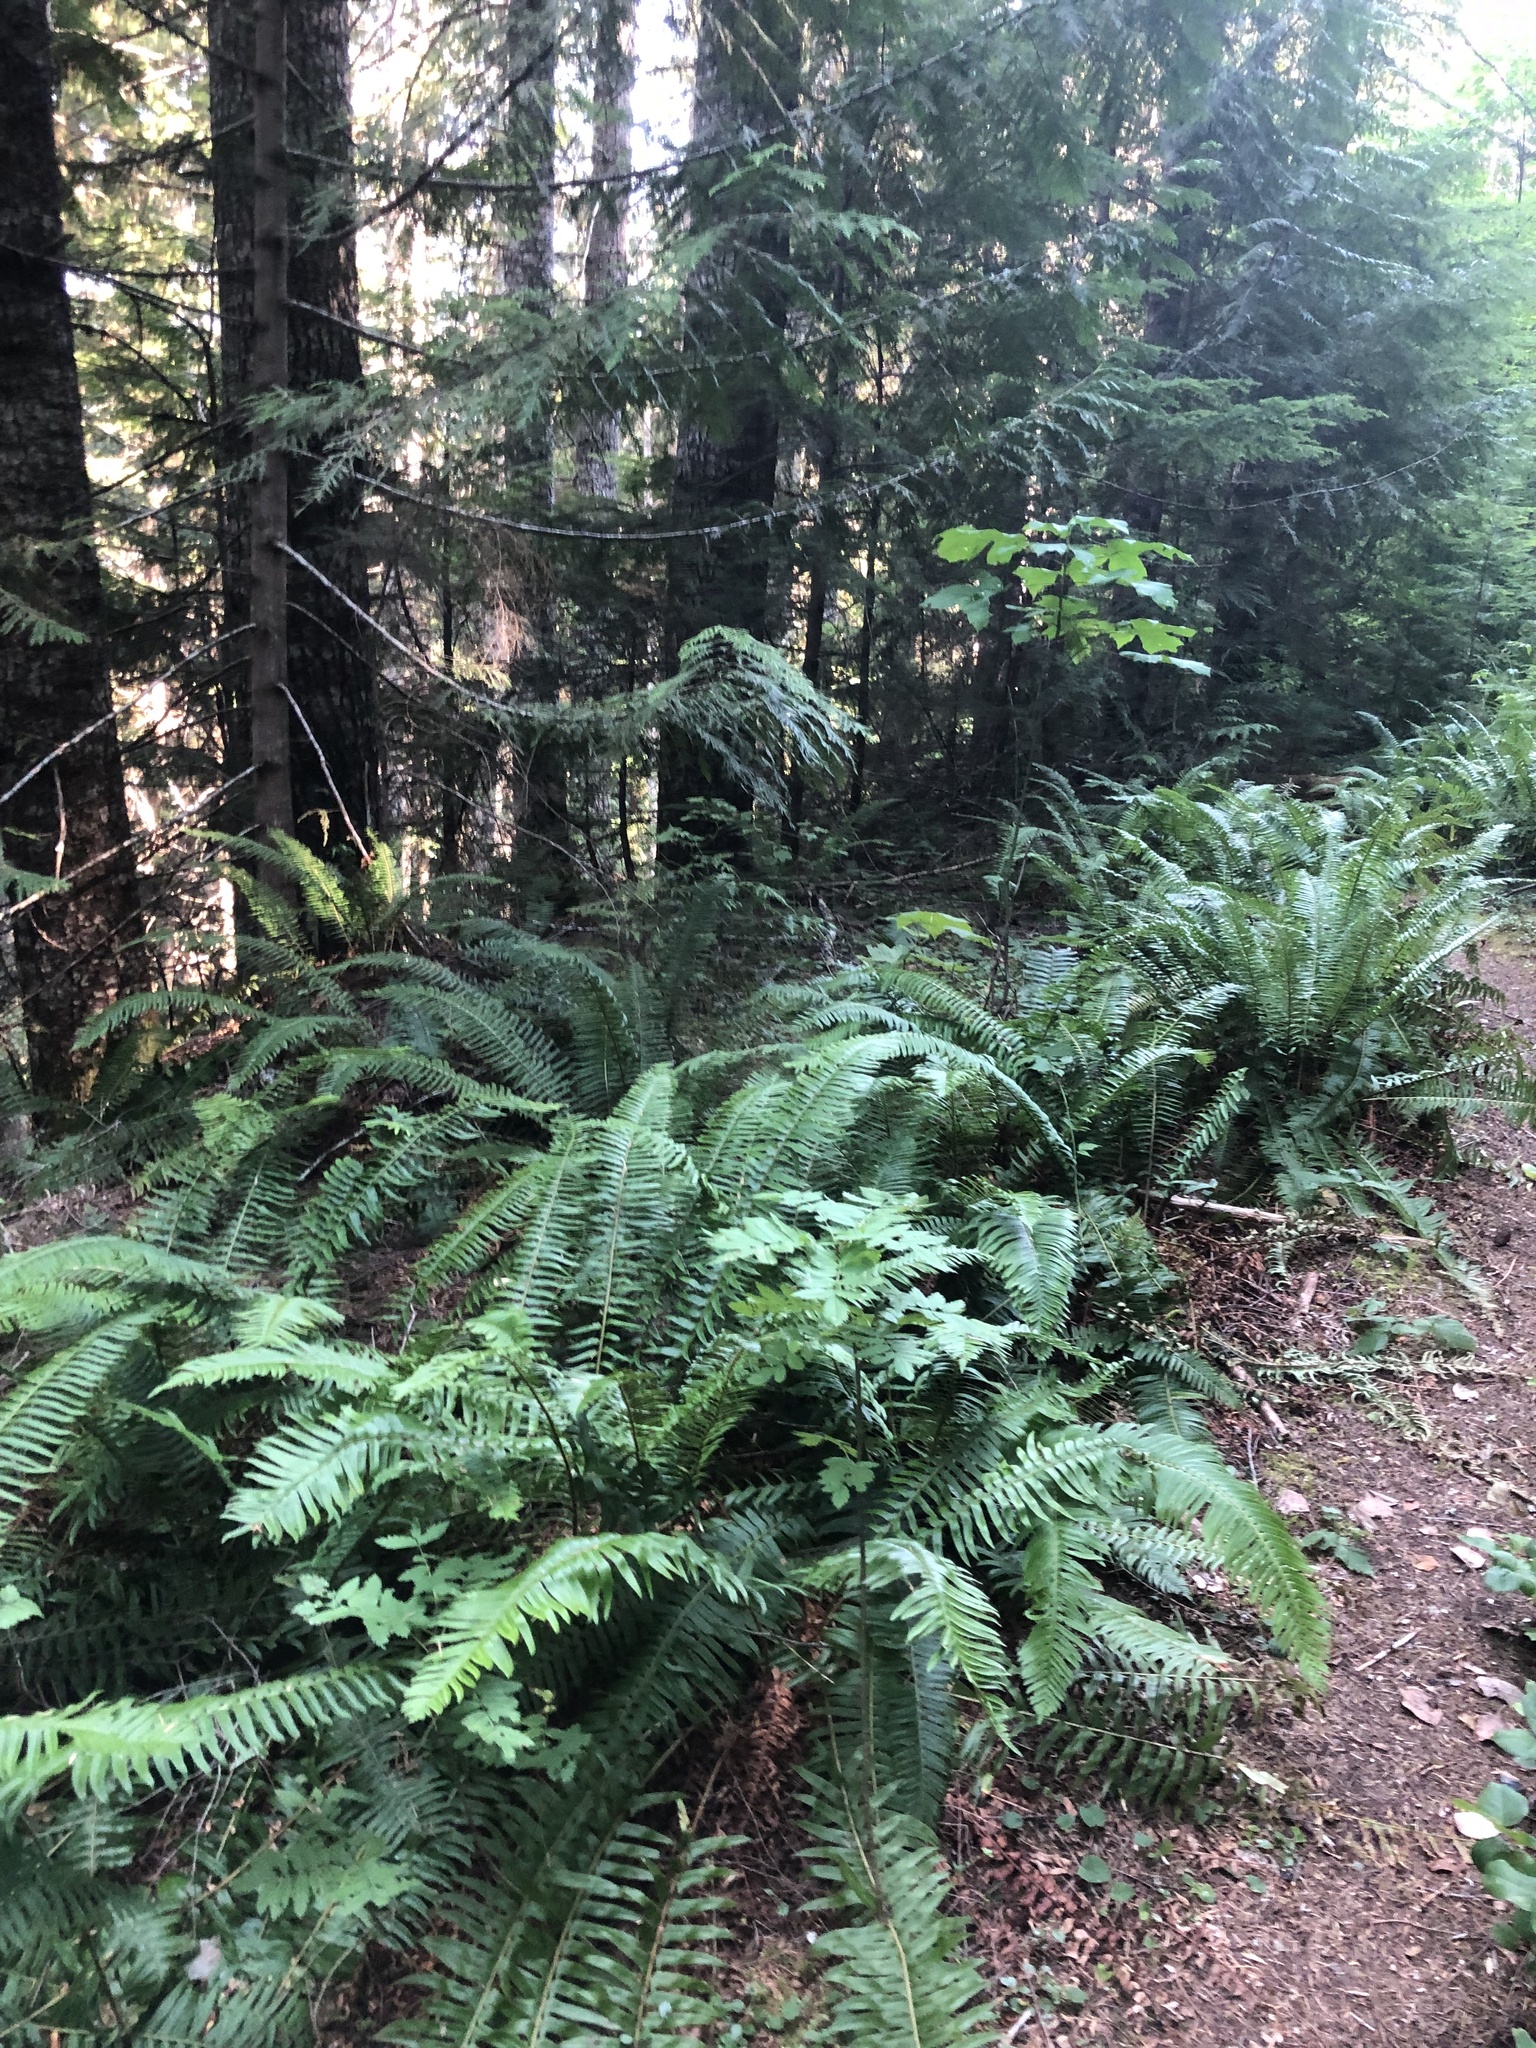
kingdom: Plantae
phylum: Tracheophyta
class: Magnoliopsida
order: Rosales
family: Rosaceae
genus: Sorbus
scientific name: Sorbus aucuparia
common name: Rowan
